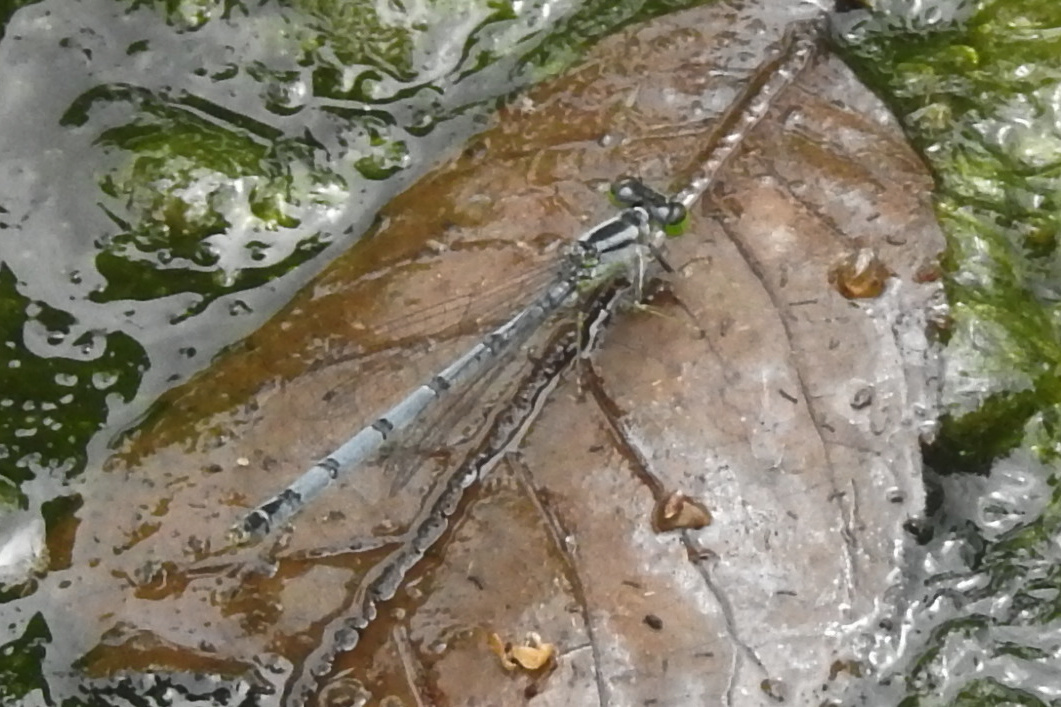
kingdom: Animalia
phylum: Arthropoda
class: Insecta
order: Odonata
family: Coenagrionidae
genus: Ischnura
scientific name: Ischnura verticalis
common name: Eastern forktail
